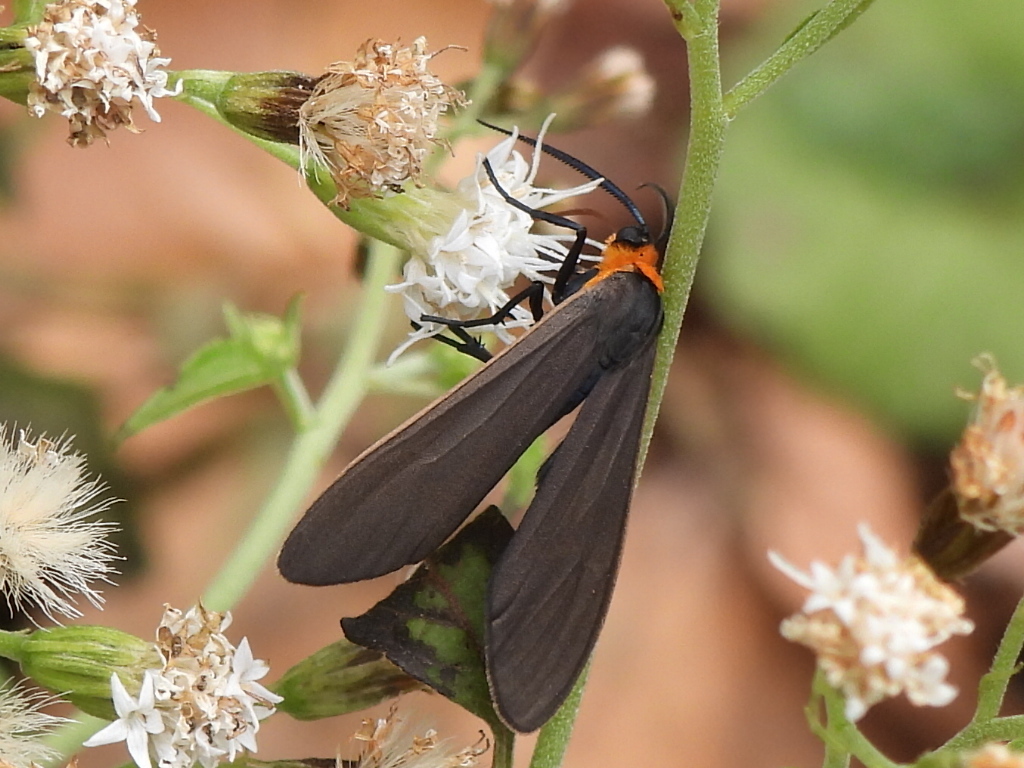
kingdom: Animalia
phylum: Arthropoda
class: Insecta
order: Lepidoptera
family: Erebidae
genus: Cisseps
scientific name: Cisseps fulvicollis
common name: Yellow-collared scape moth
